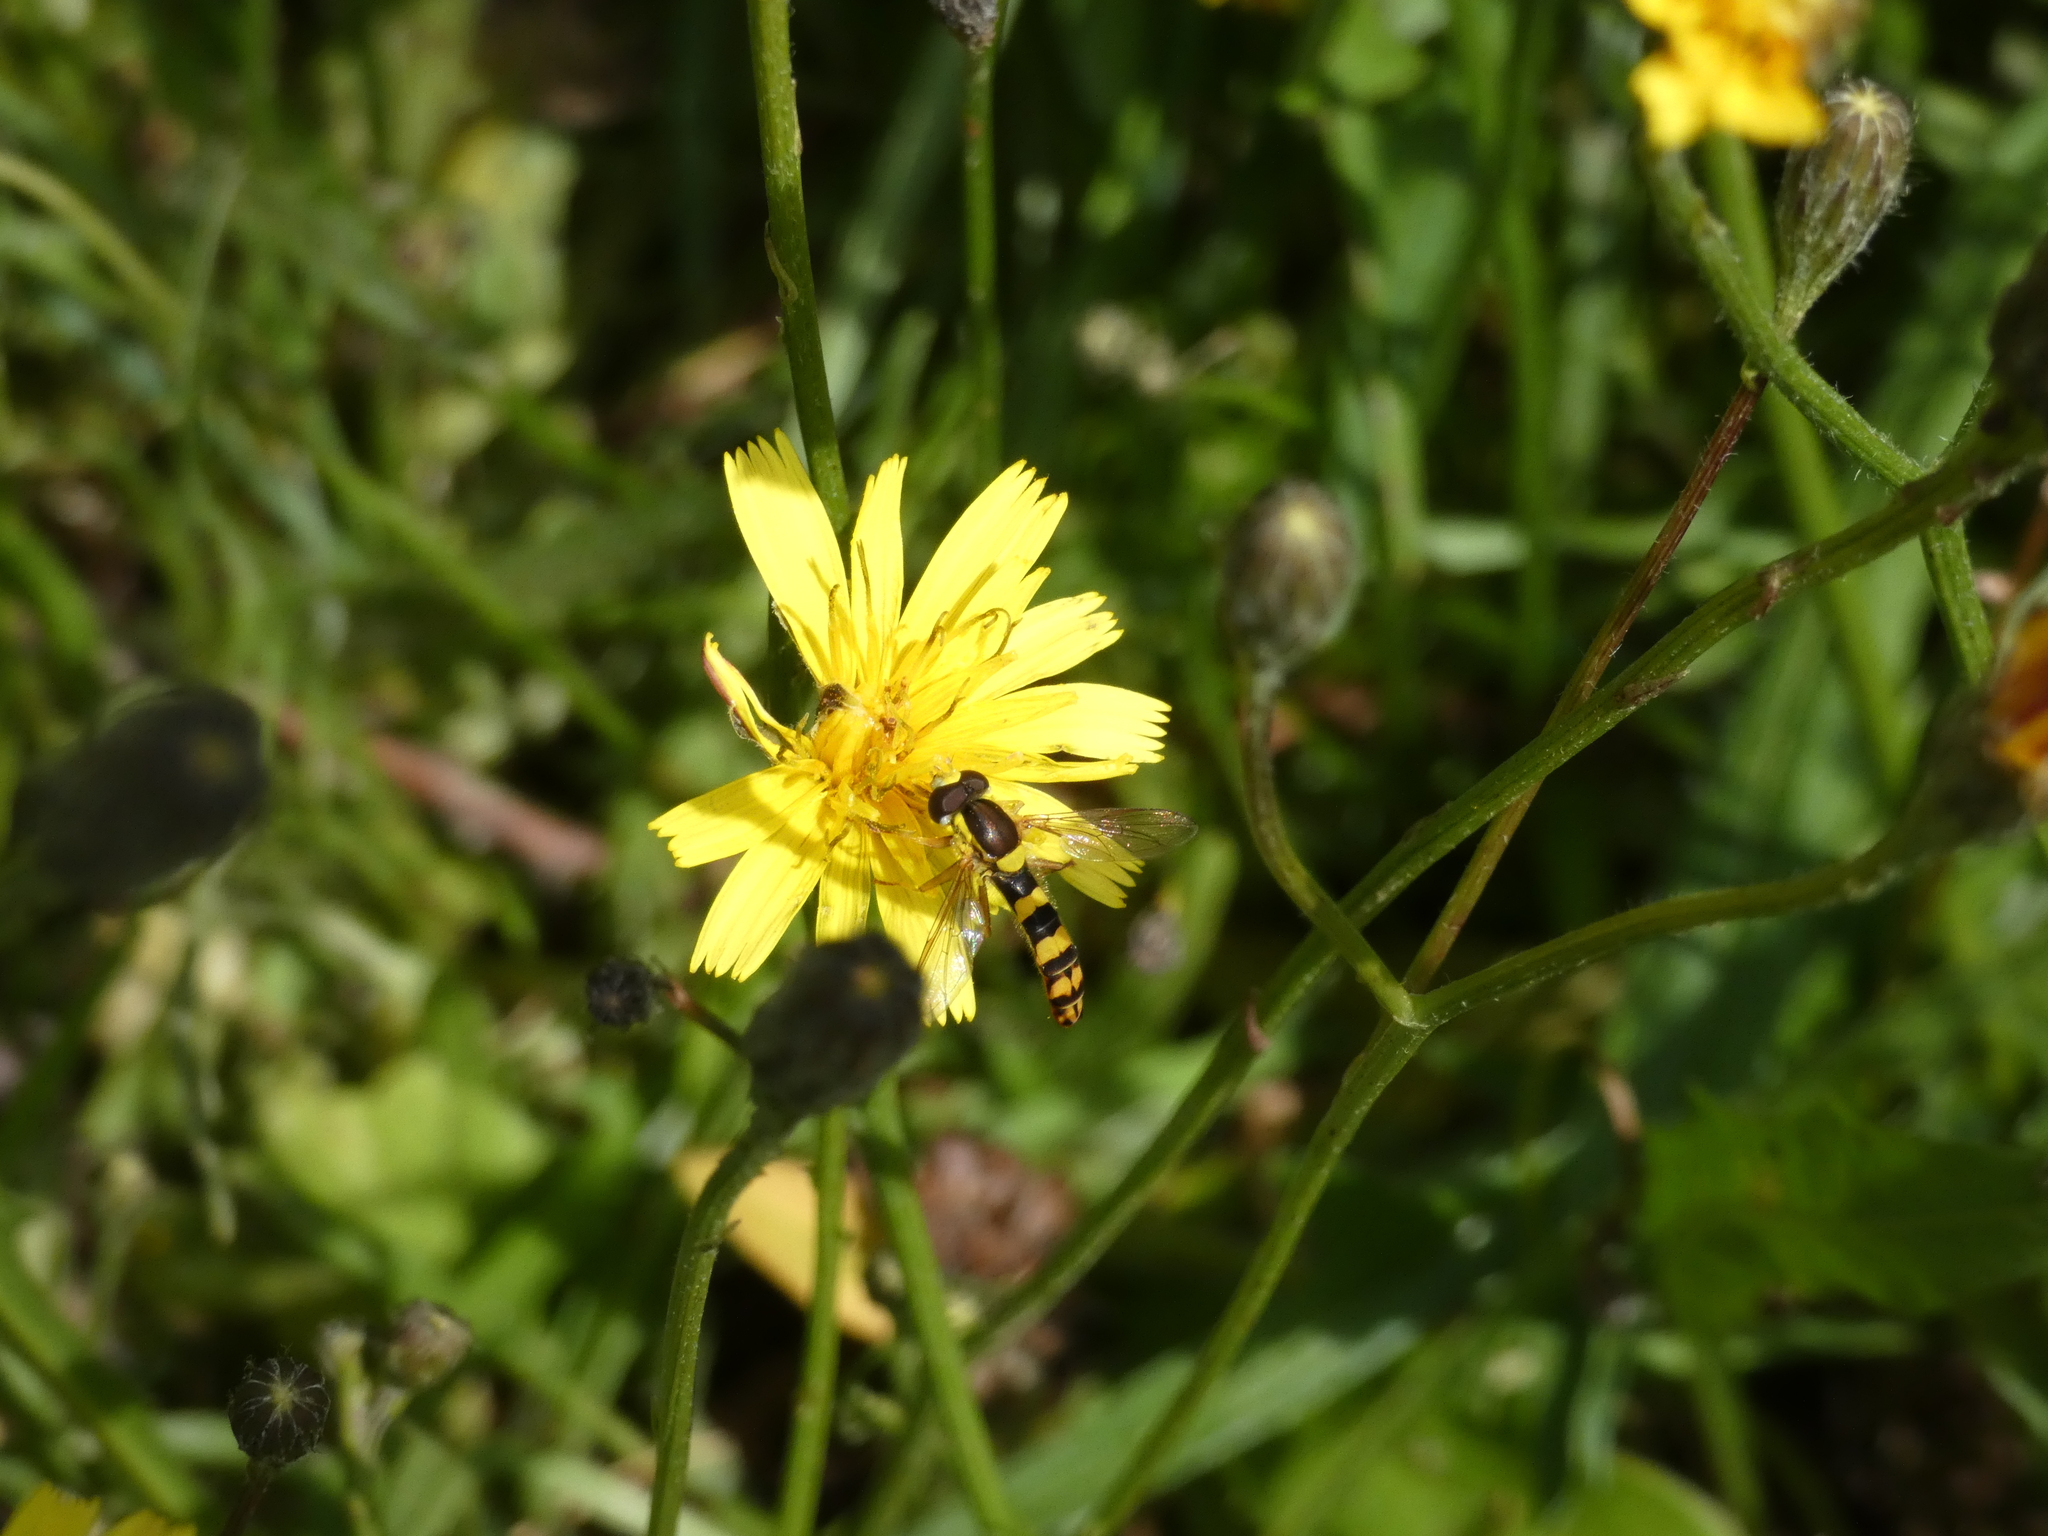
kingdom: Animalia
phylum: Arthropoda
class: Insecta
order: Diptera
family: Syrphidae
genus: Sphaerophoria
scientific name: Sphaerophoria scripta
